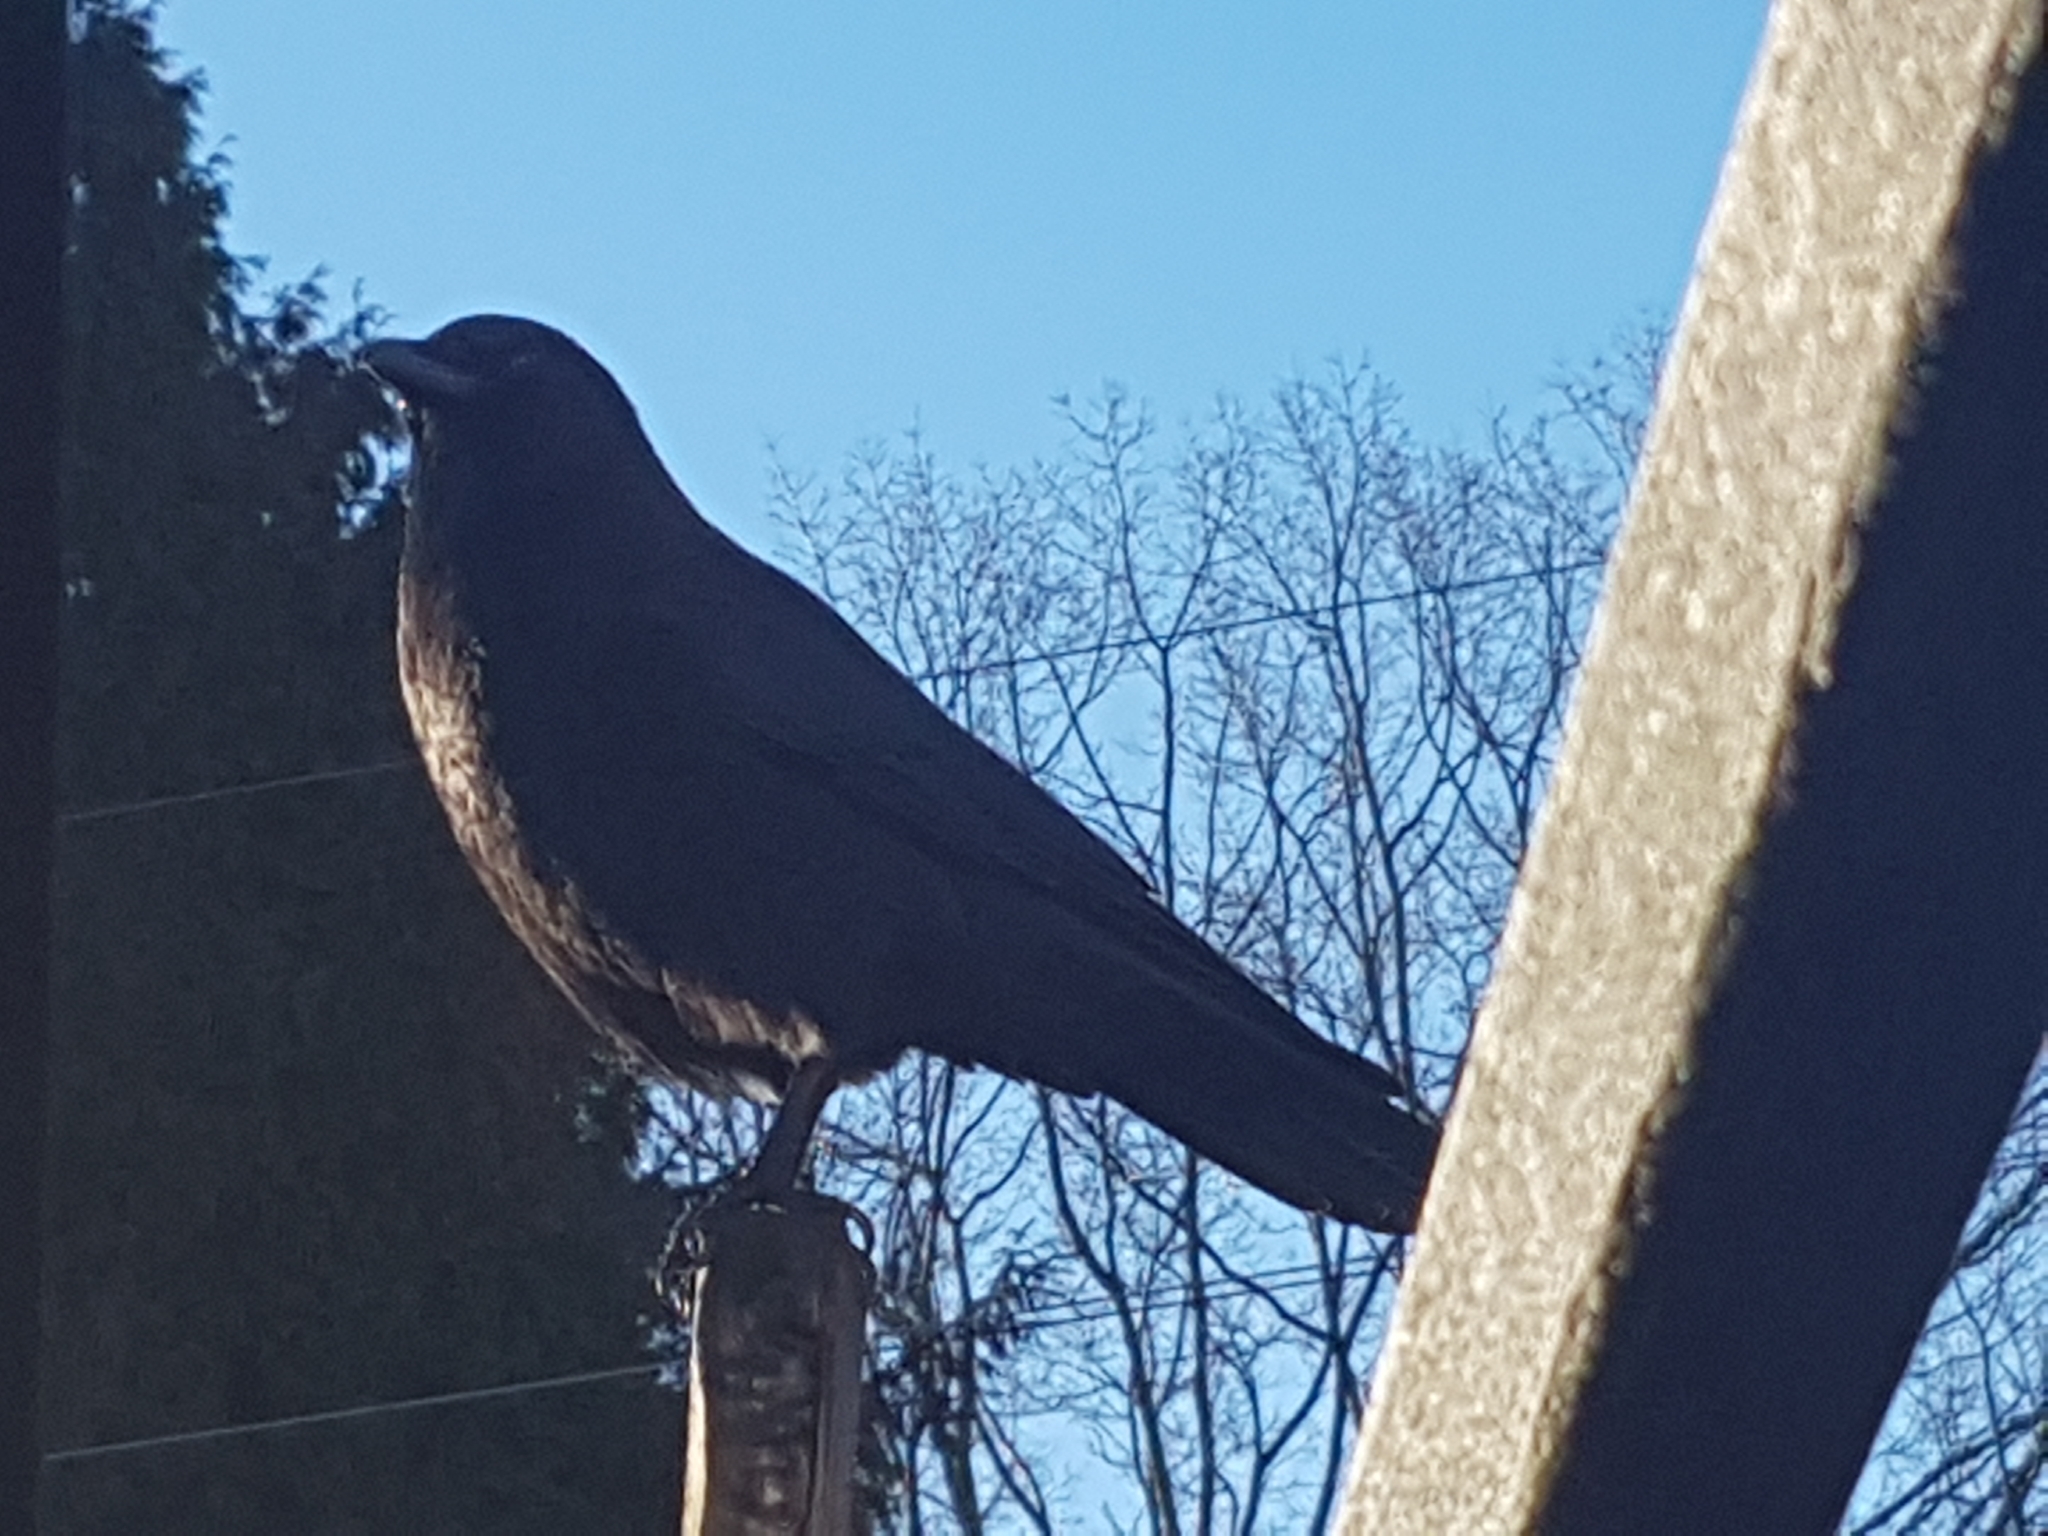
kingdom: Animalia
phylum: Chordata
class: Aves
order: Passeriformes
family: Corvidae
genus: Corvus
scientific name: Corvus brachyrhynchos
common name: American crow
